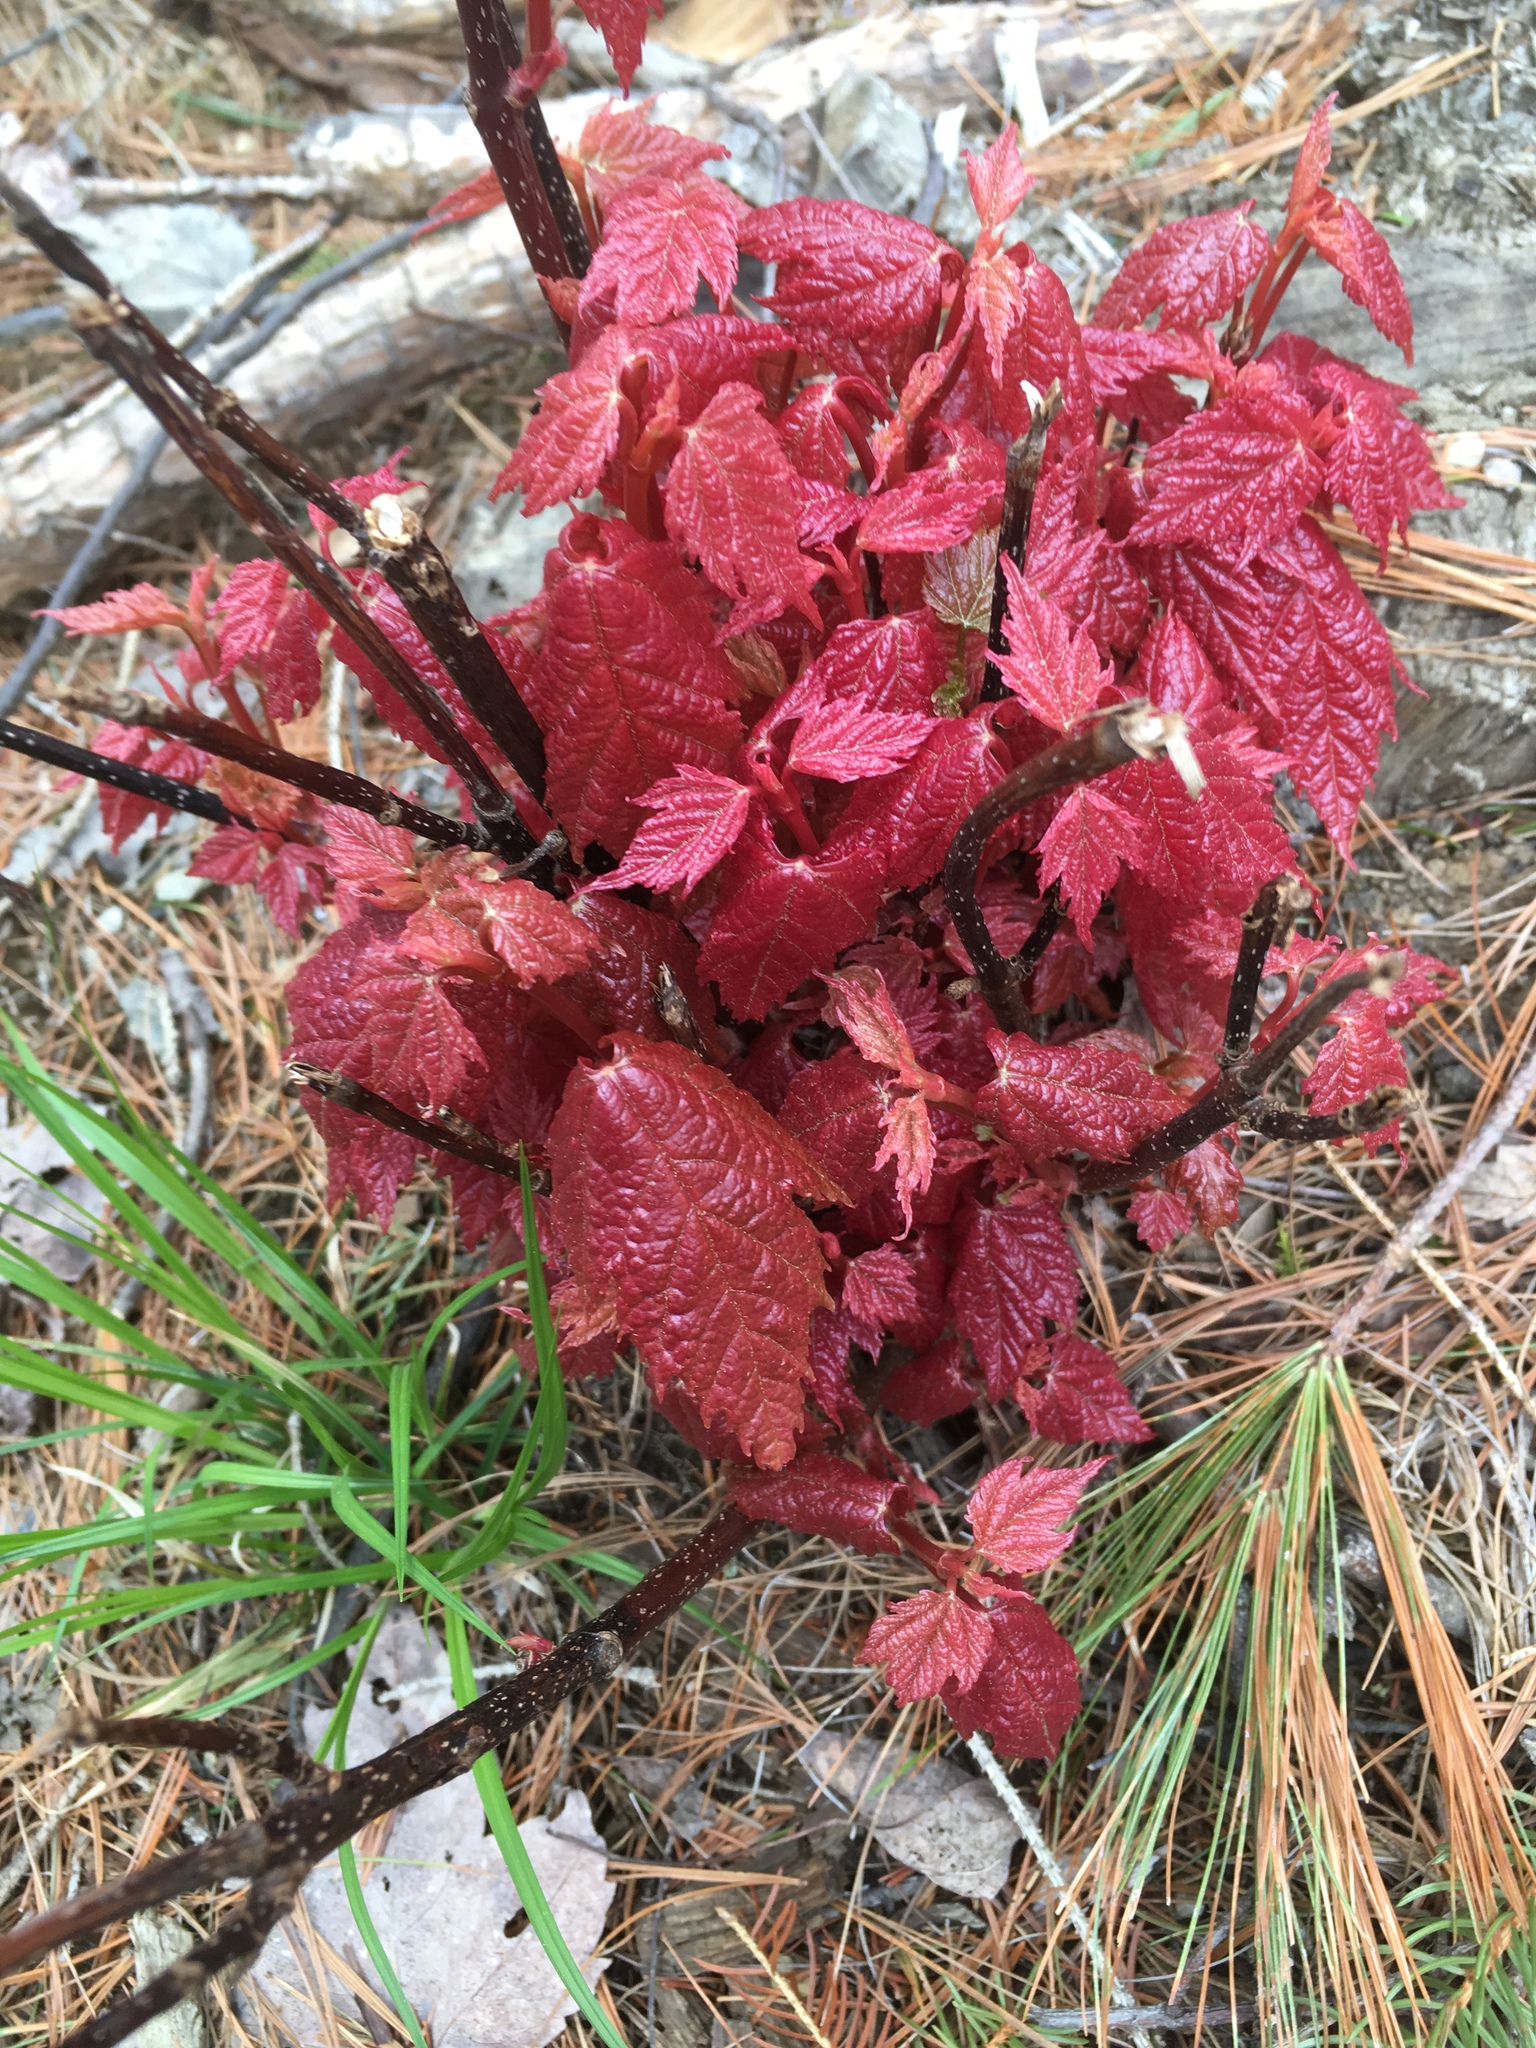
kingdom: Plantae
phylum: Tracheophyta
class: Magnoliopsida
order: Sapindales
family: Sapindaceae
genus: Acer
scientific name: Acer rubrum
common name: Red maple
